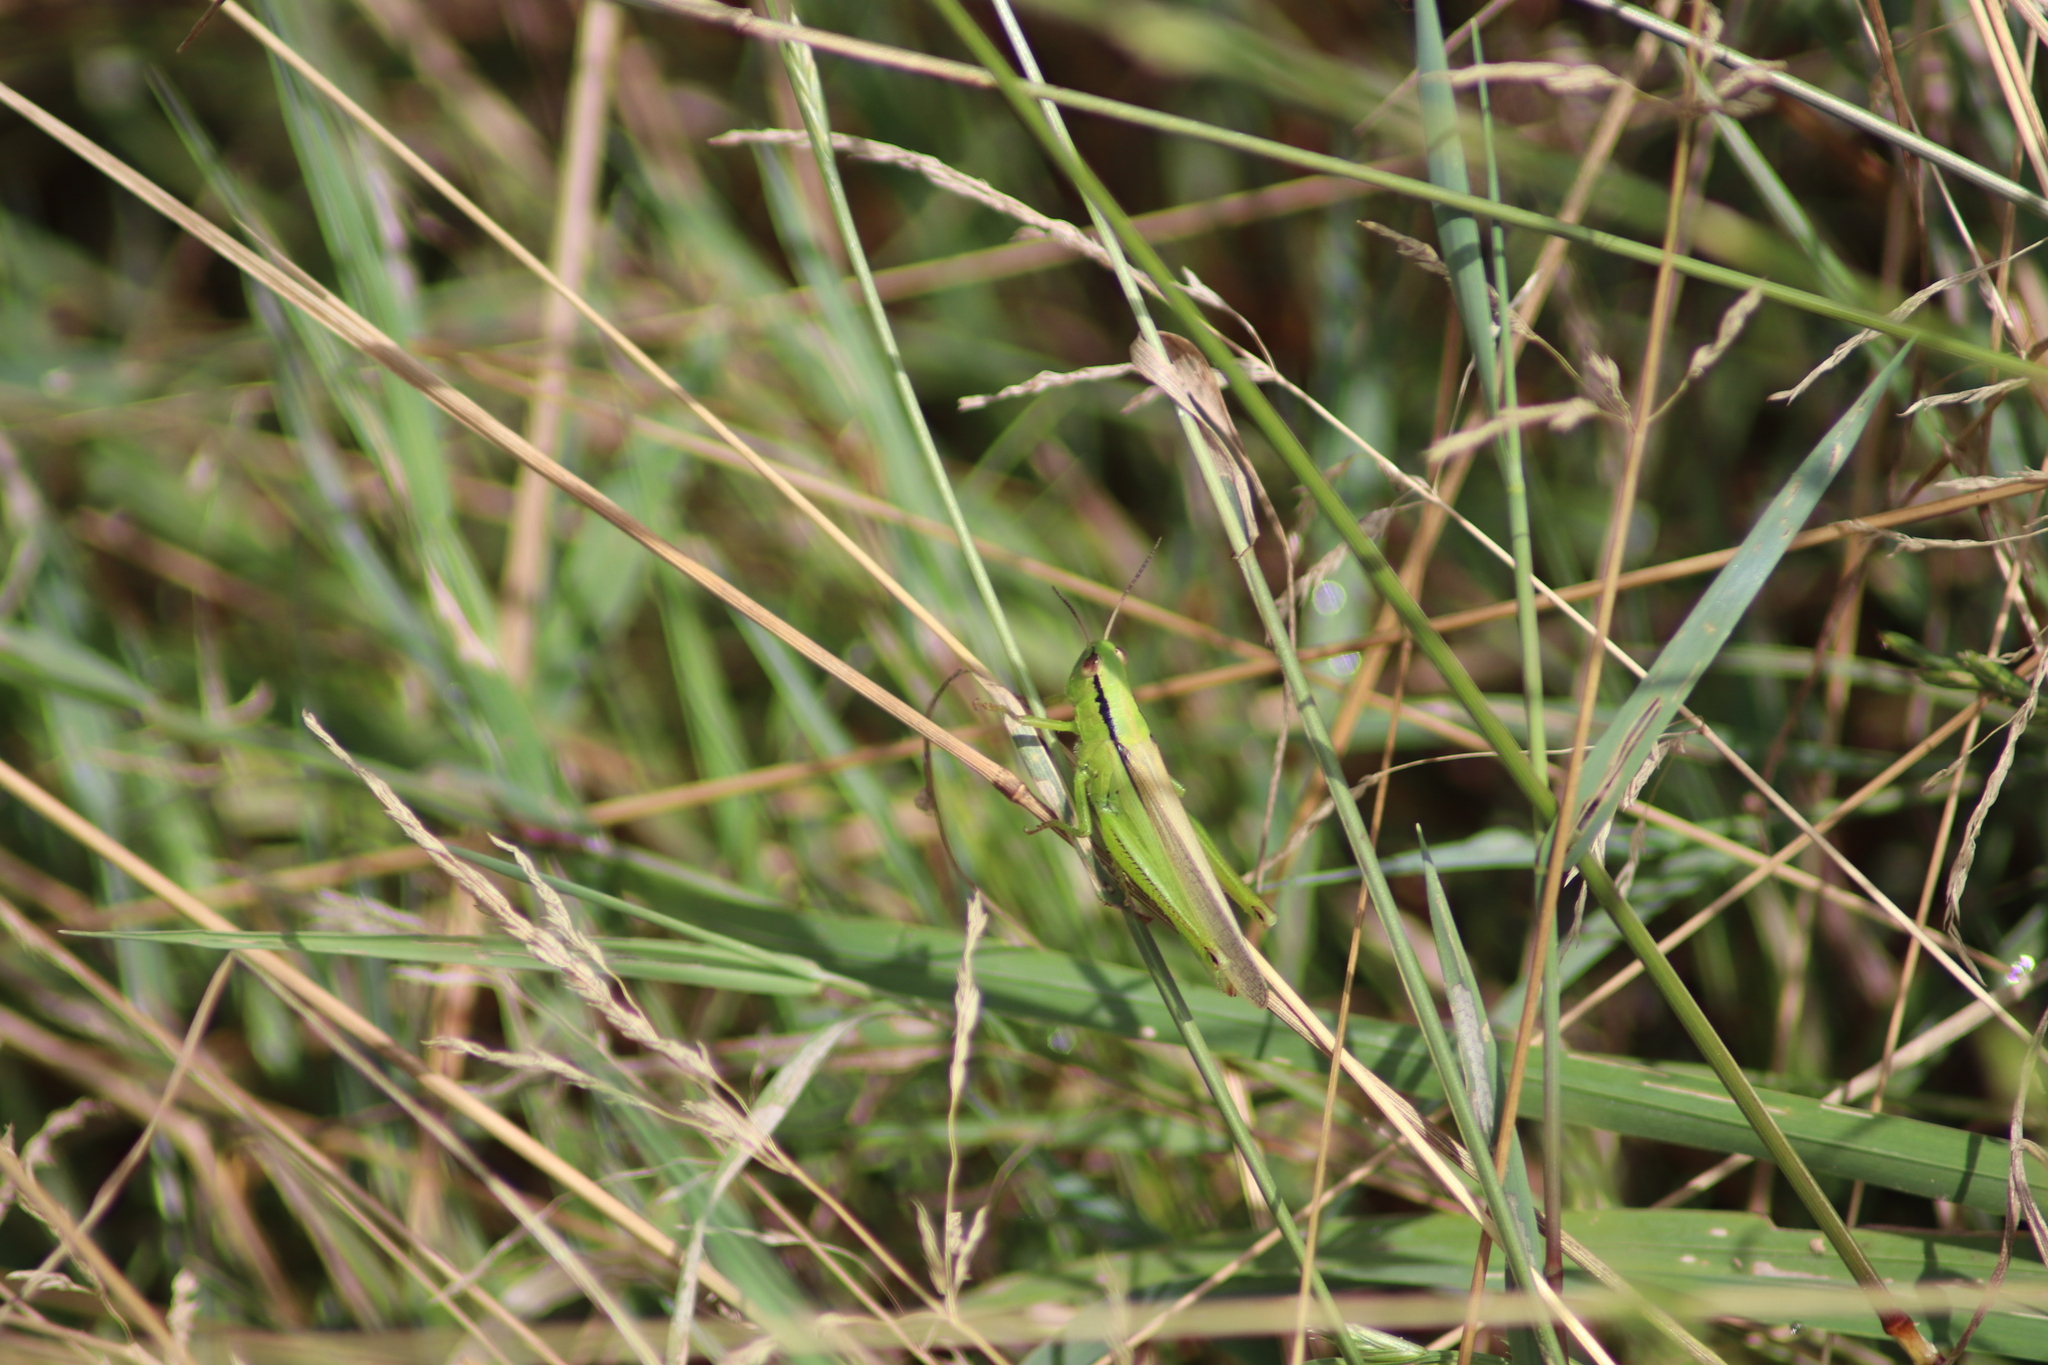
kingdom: Animalia
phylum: Arthropoda
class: Insecta
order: Orthoptera
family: Acrididae
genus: Mecostethus
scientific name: Mecostethus parapleurus
